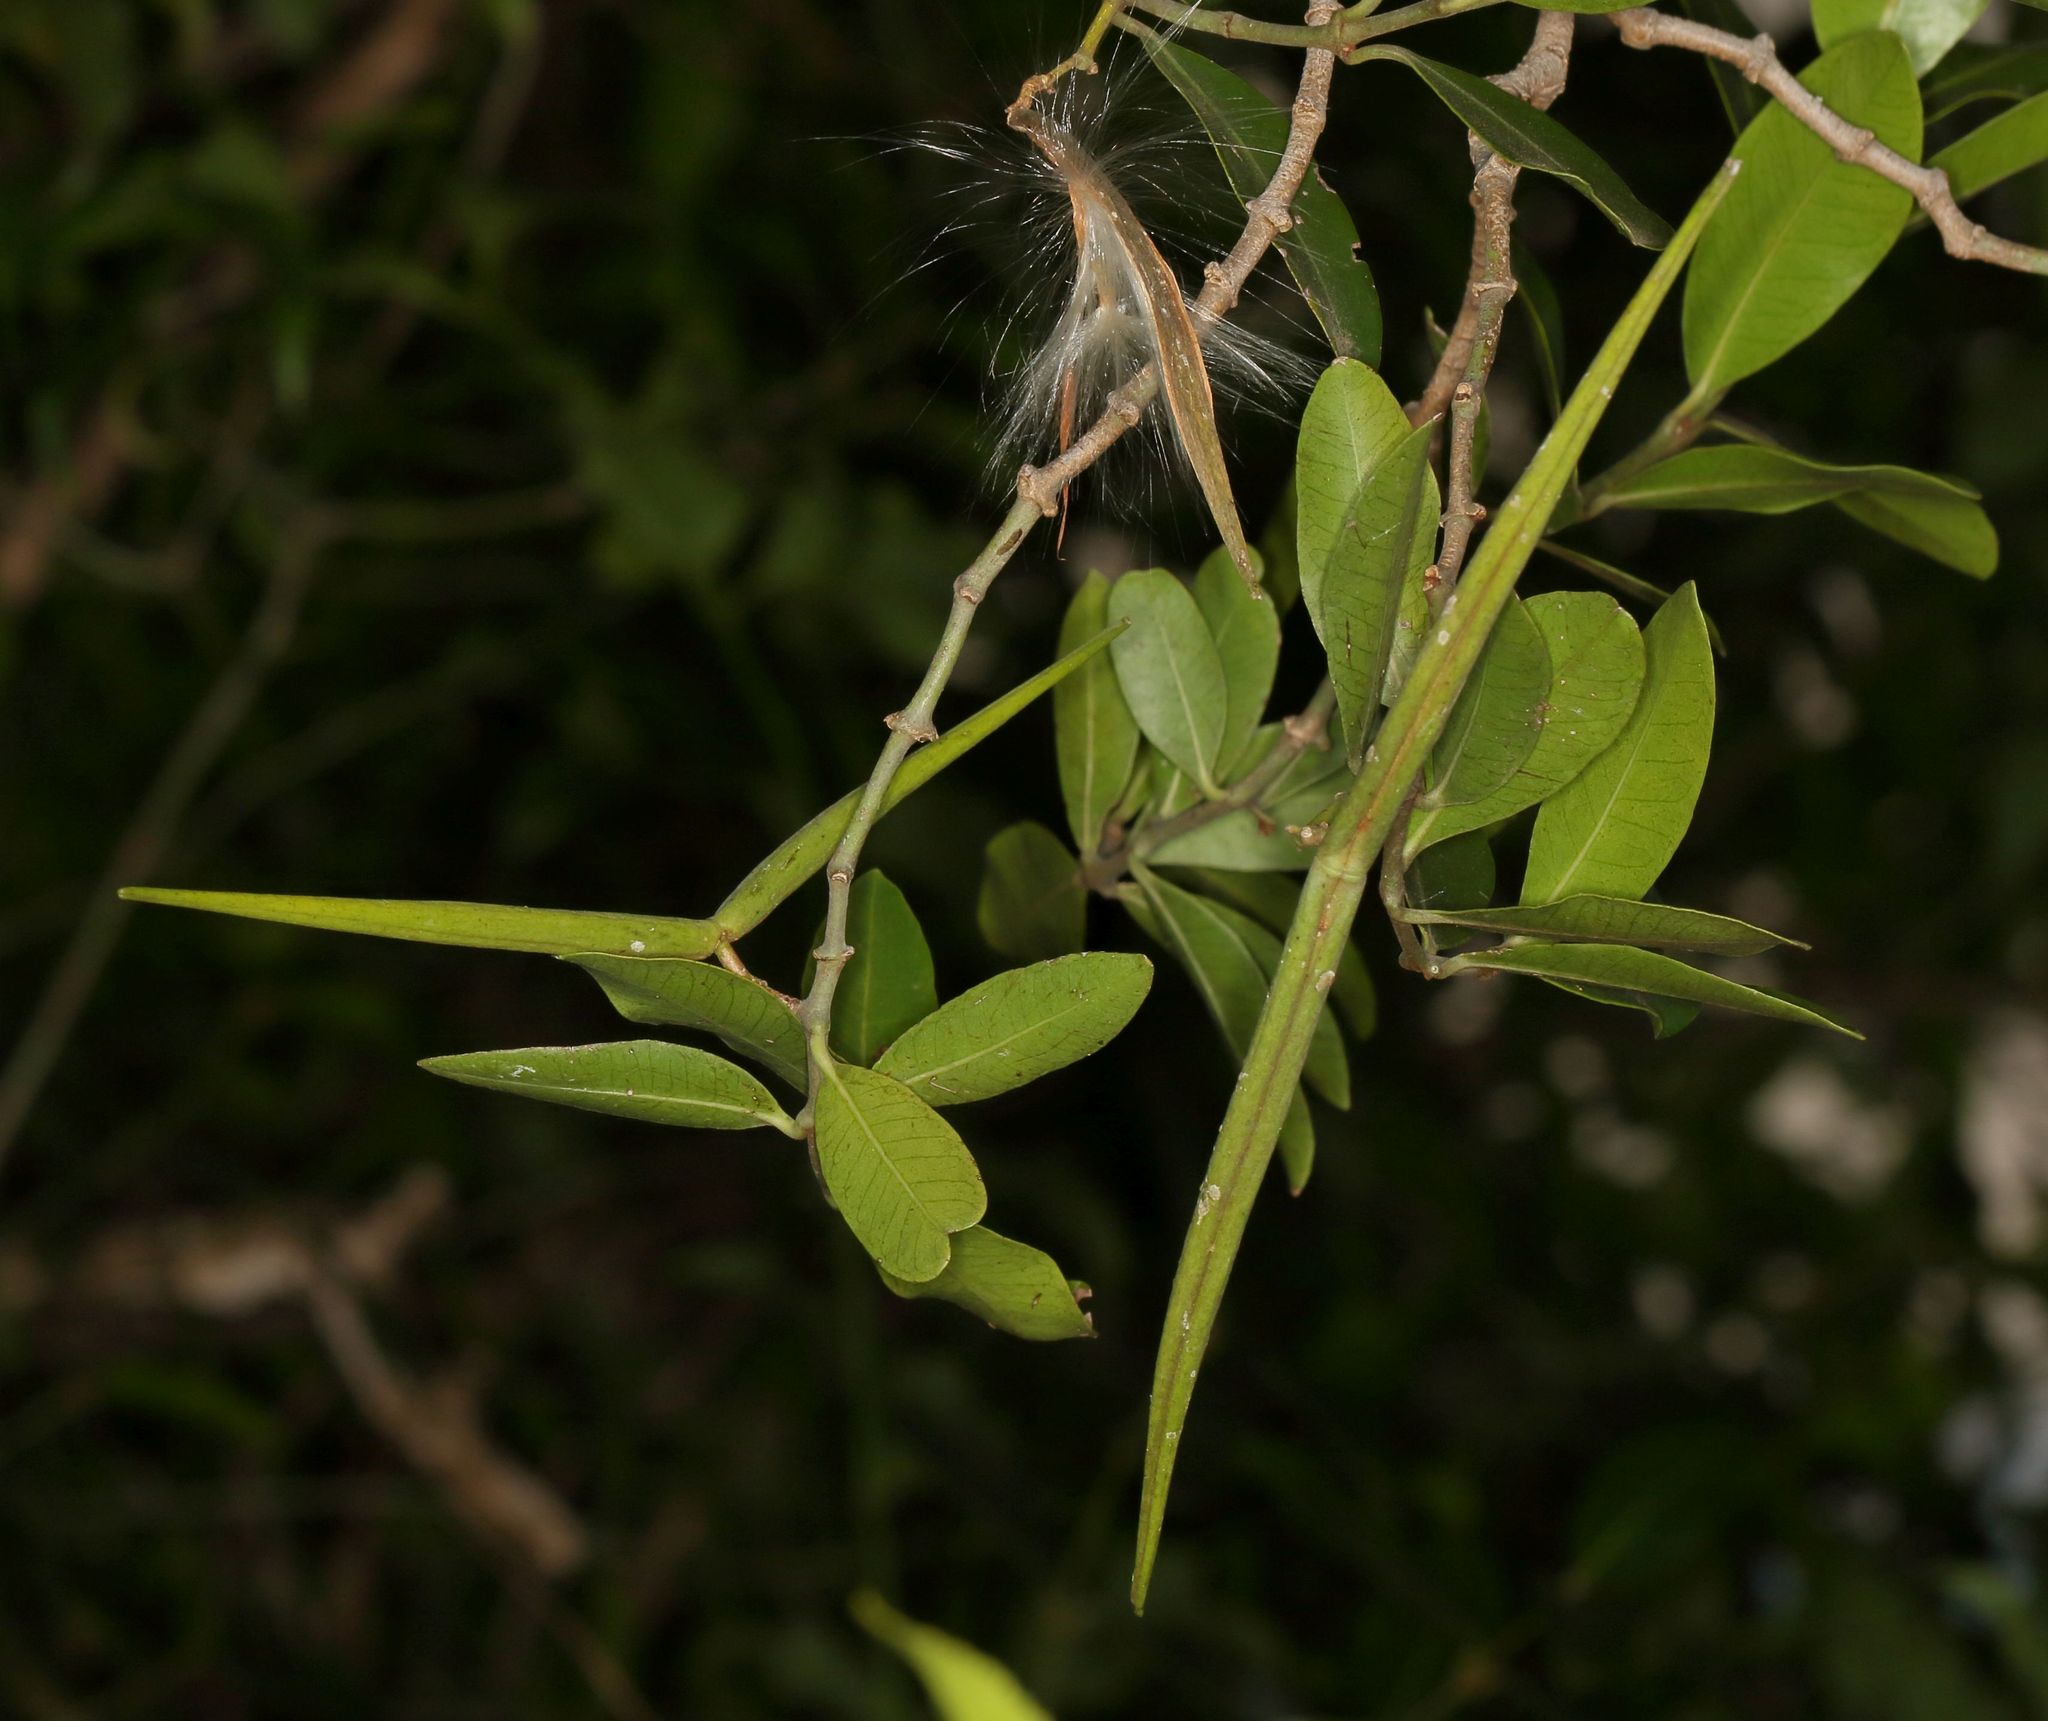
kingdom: Plantae
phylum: Tracheophyta
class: Magnoliopsida
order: Gentianales
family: Apocynaceae
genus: Secamone
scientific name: Secamone alpini
